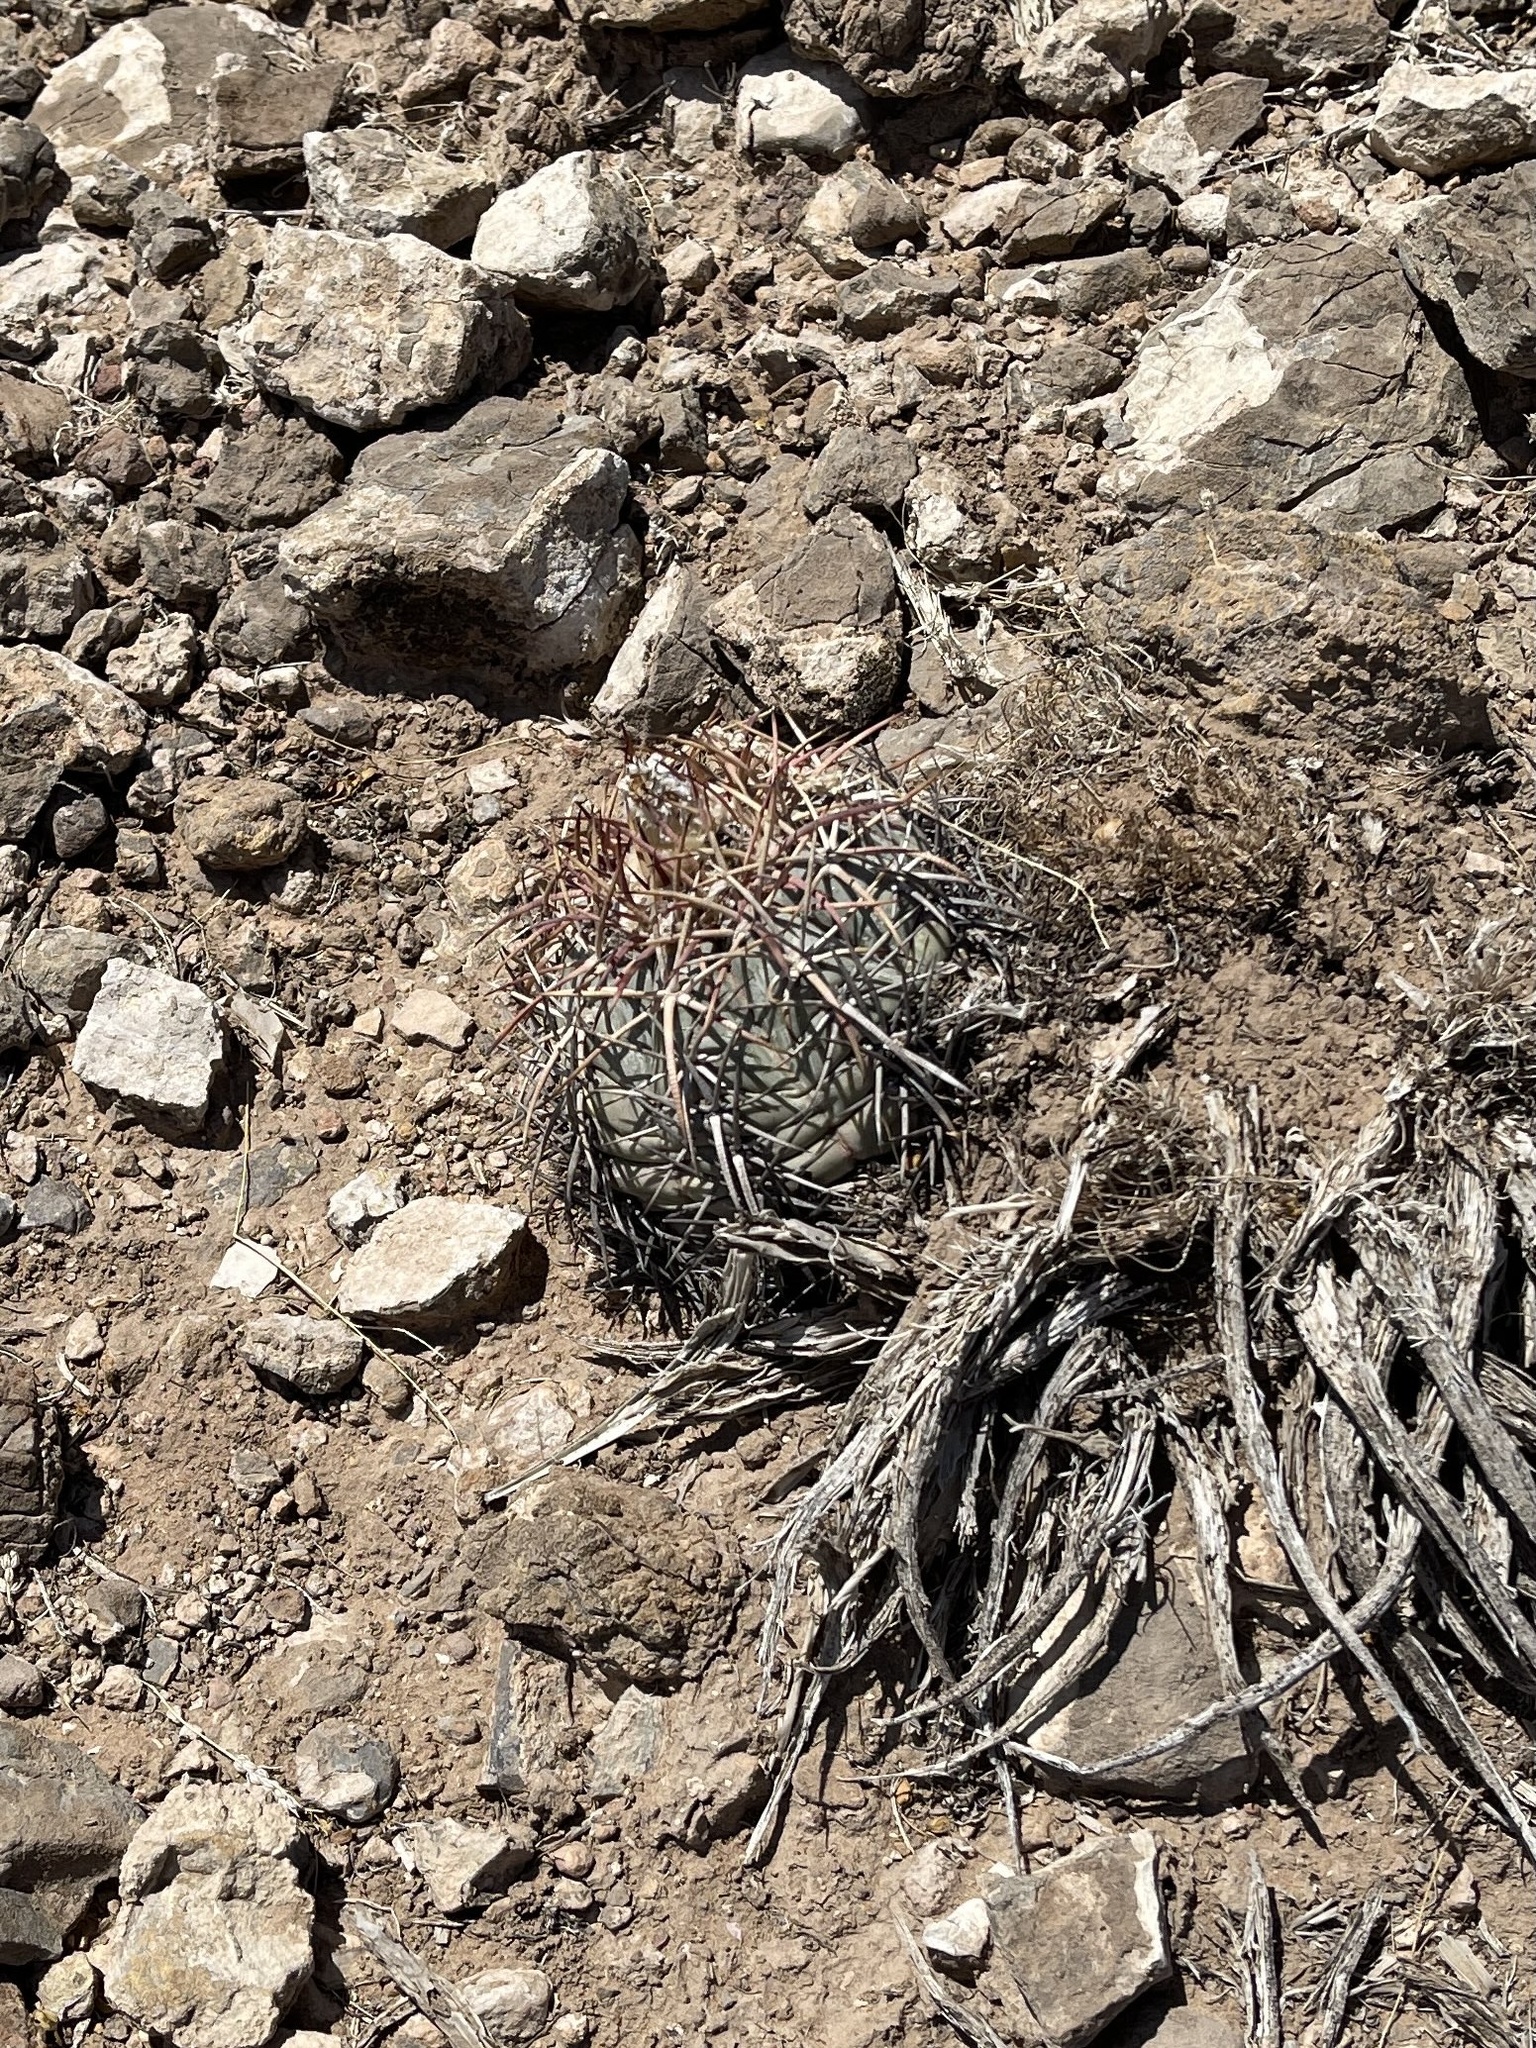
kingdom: Plantae
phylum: Tracheophyta
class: Magnoliopsida
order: Caryophyllales
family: Cactaceae
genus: Echinocactus
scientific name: Echinocactus horizonthalonius
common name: Devilshead
